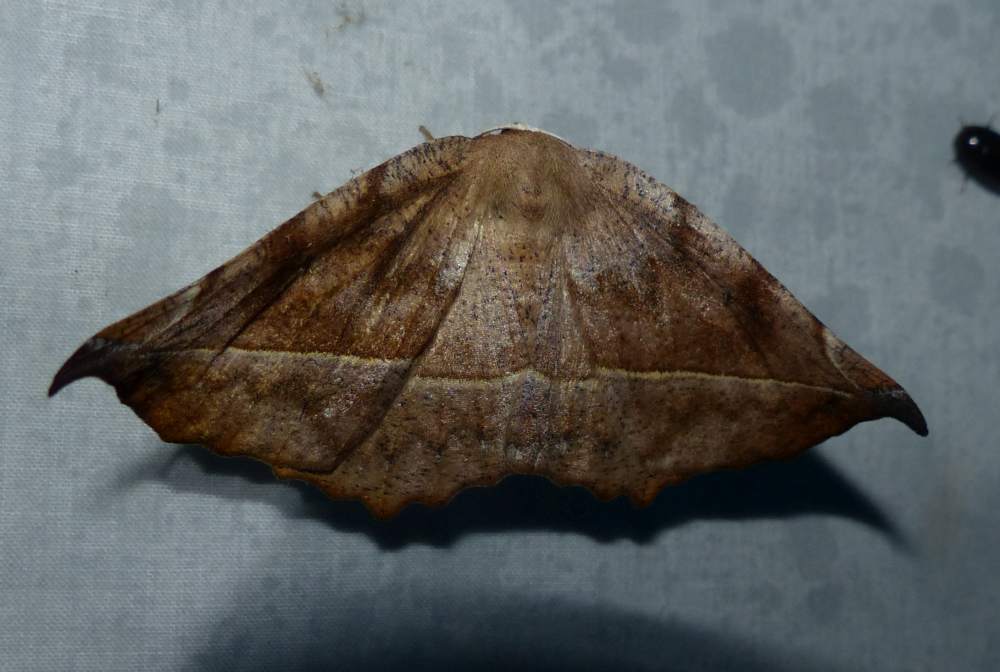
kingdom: Animalia
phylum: Arthropoda
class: Insecta
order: Lepidoptera
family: Geometridae
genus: Eutrapela
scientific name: Eutrapela clemataria
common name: Curved-toothed geometer
